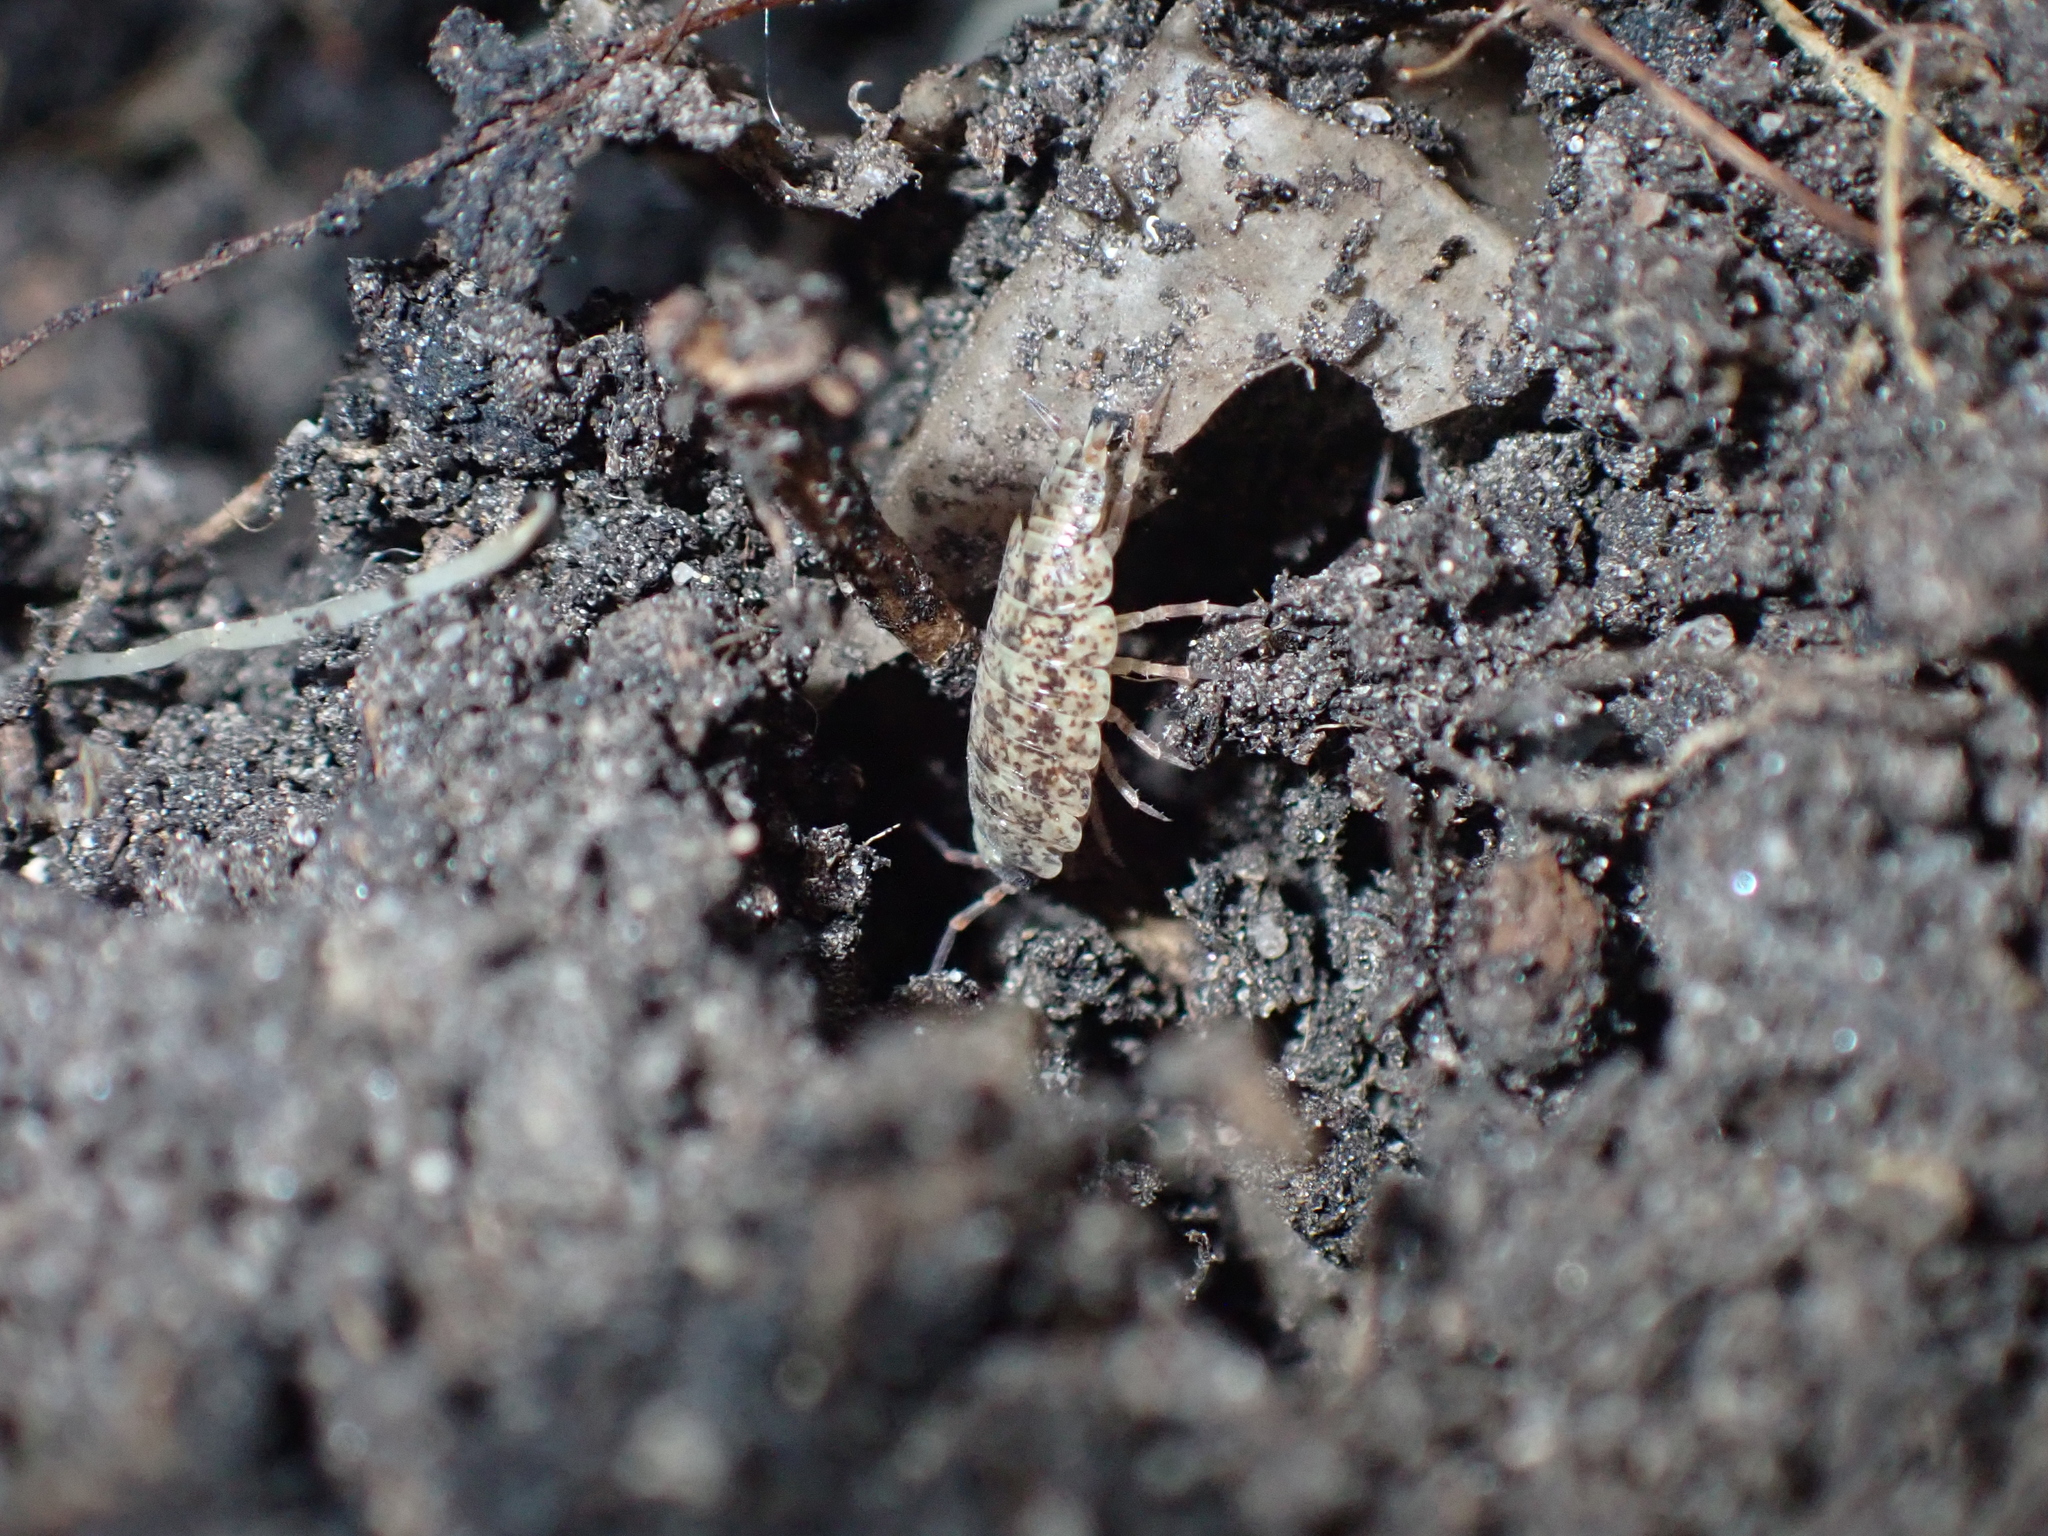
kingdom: Animalia
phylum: Arthropoda
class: Malacostraca
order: Isopoda
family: Porcellionidae
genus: Porcellionides
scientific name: Porcellionides cingendus
